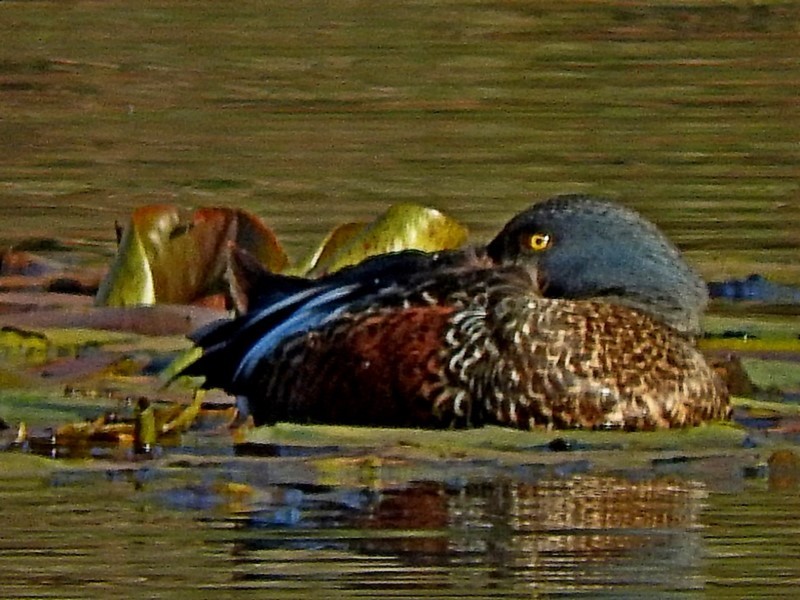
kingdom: Animalia
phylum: Chordata
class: Aves
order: Anseriformes
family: Anatidae
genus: Spatula
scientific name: Spatula rhynchotis
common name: Australian shoveler
